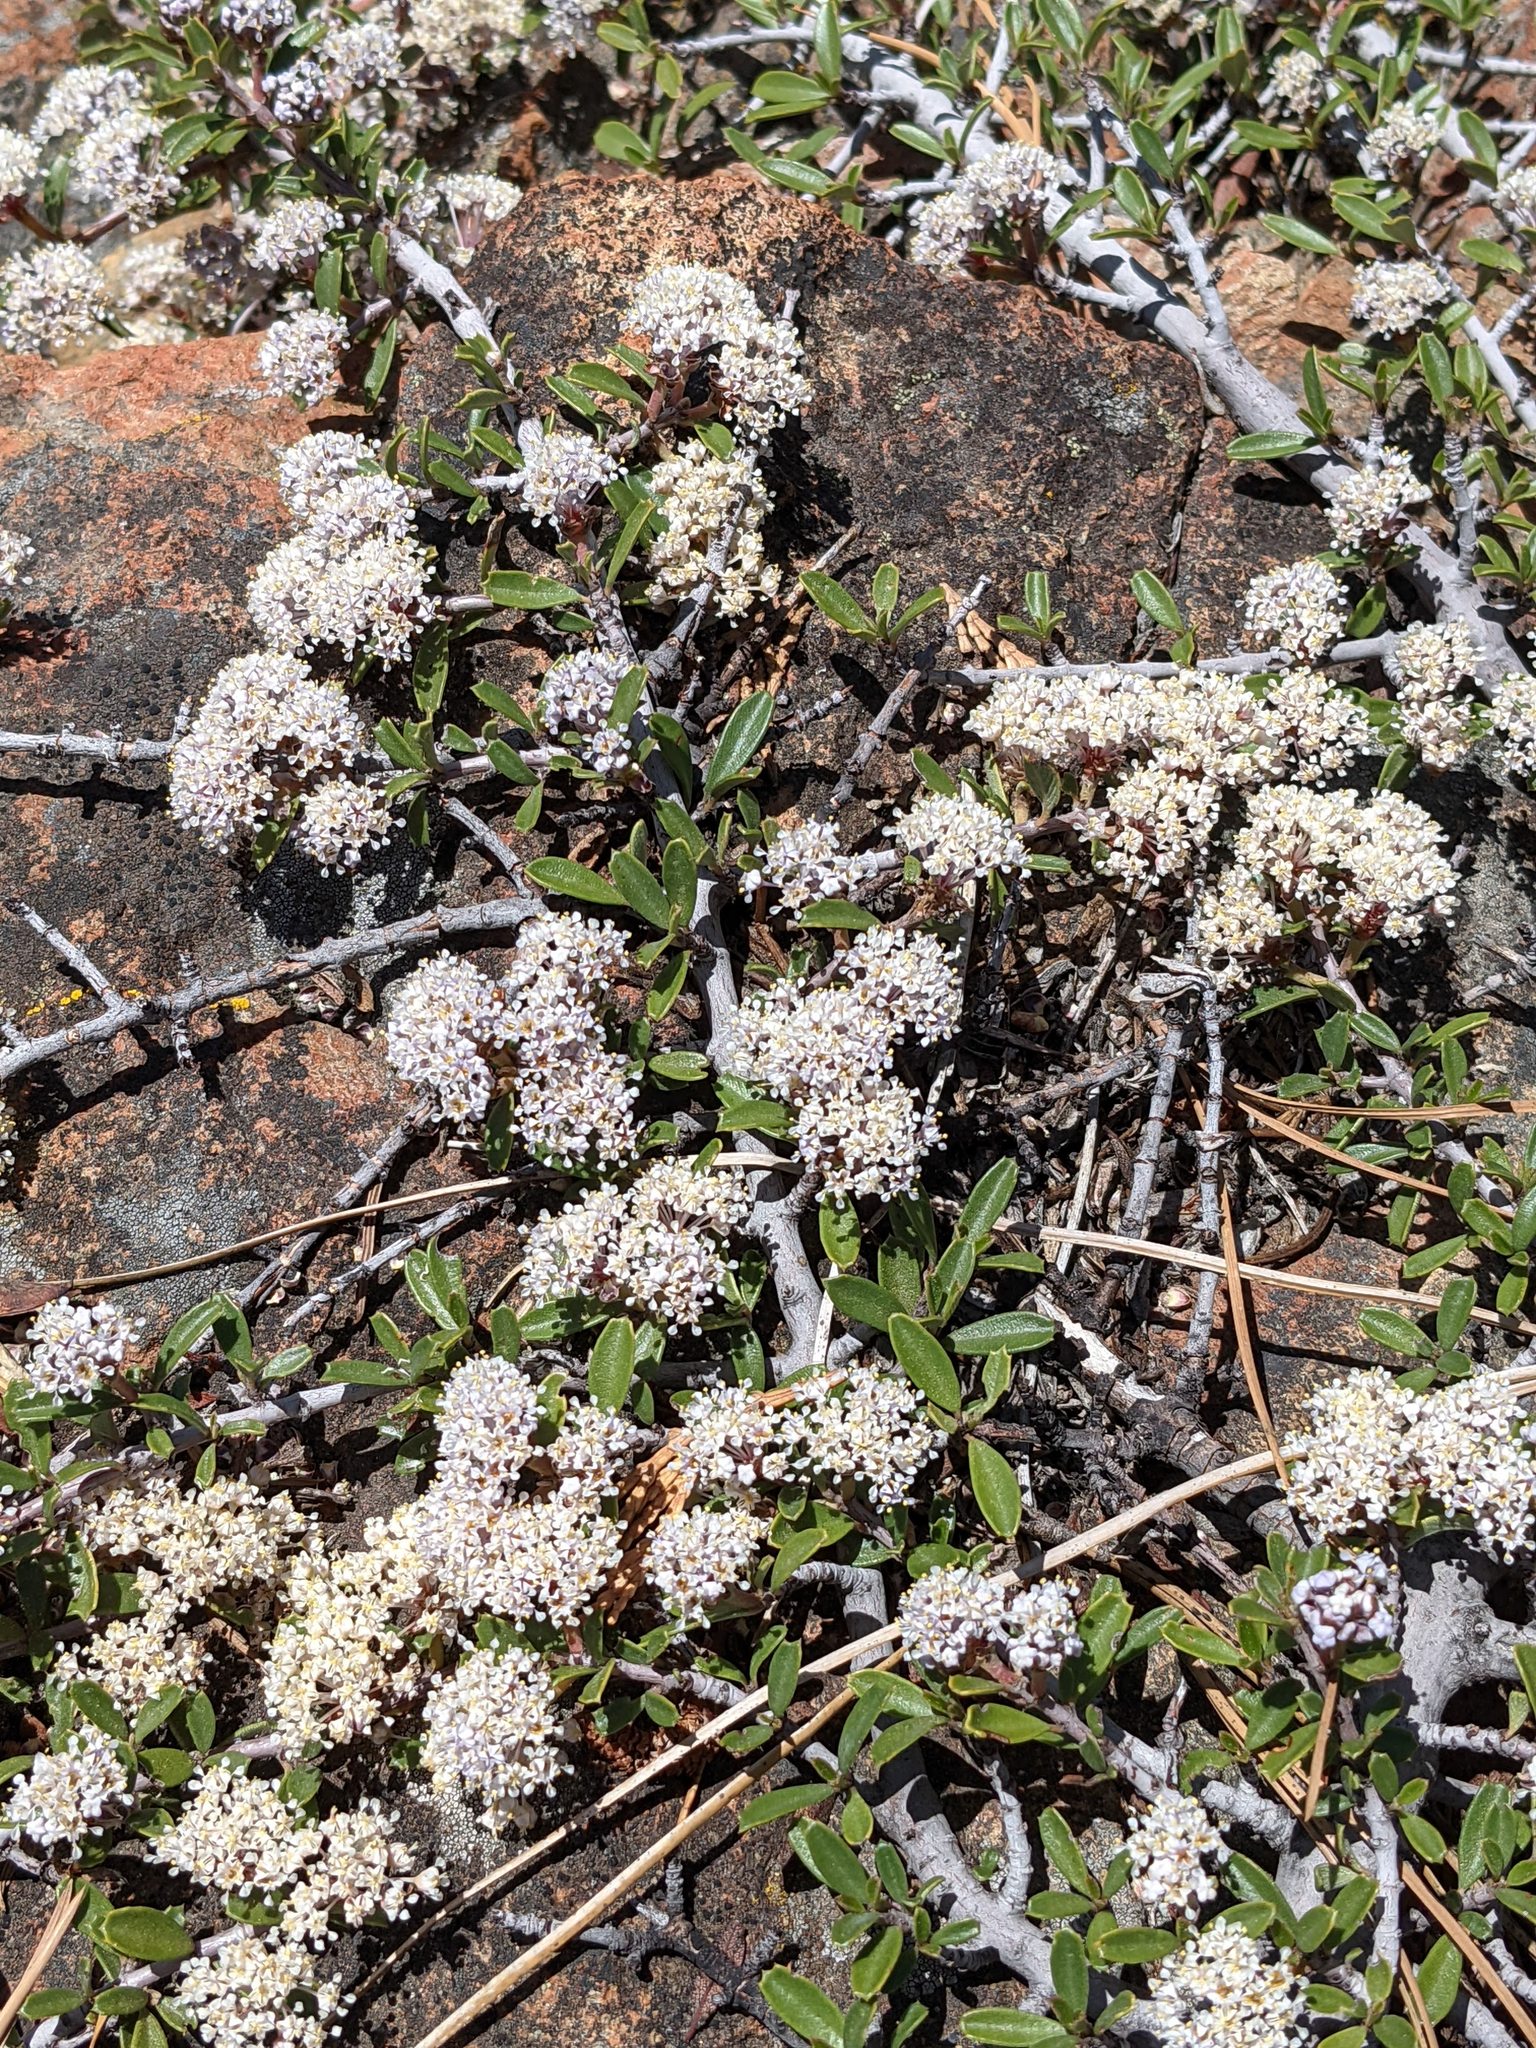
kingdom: Plantae
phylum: Tracheophyta
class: Magnoliopsida
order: Rosales
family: Rhamnaceae
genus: Ceanothus
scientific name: Ceanothus pumilus
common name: Siskiyou-mat
